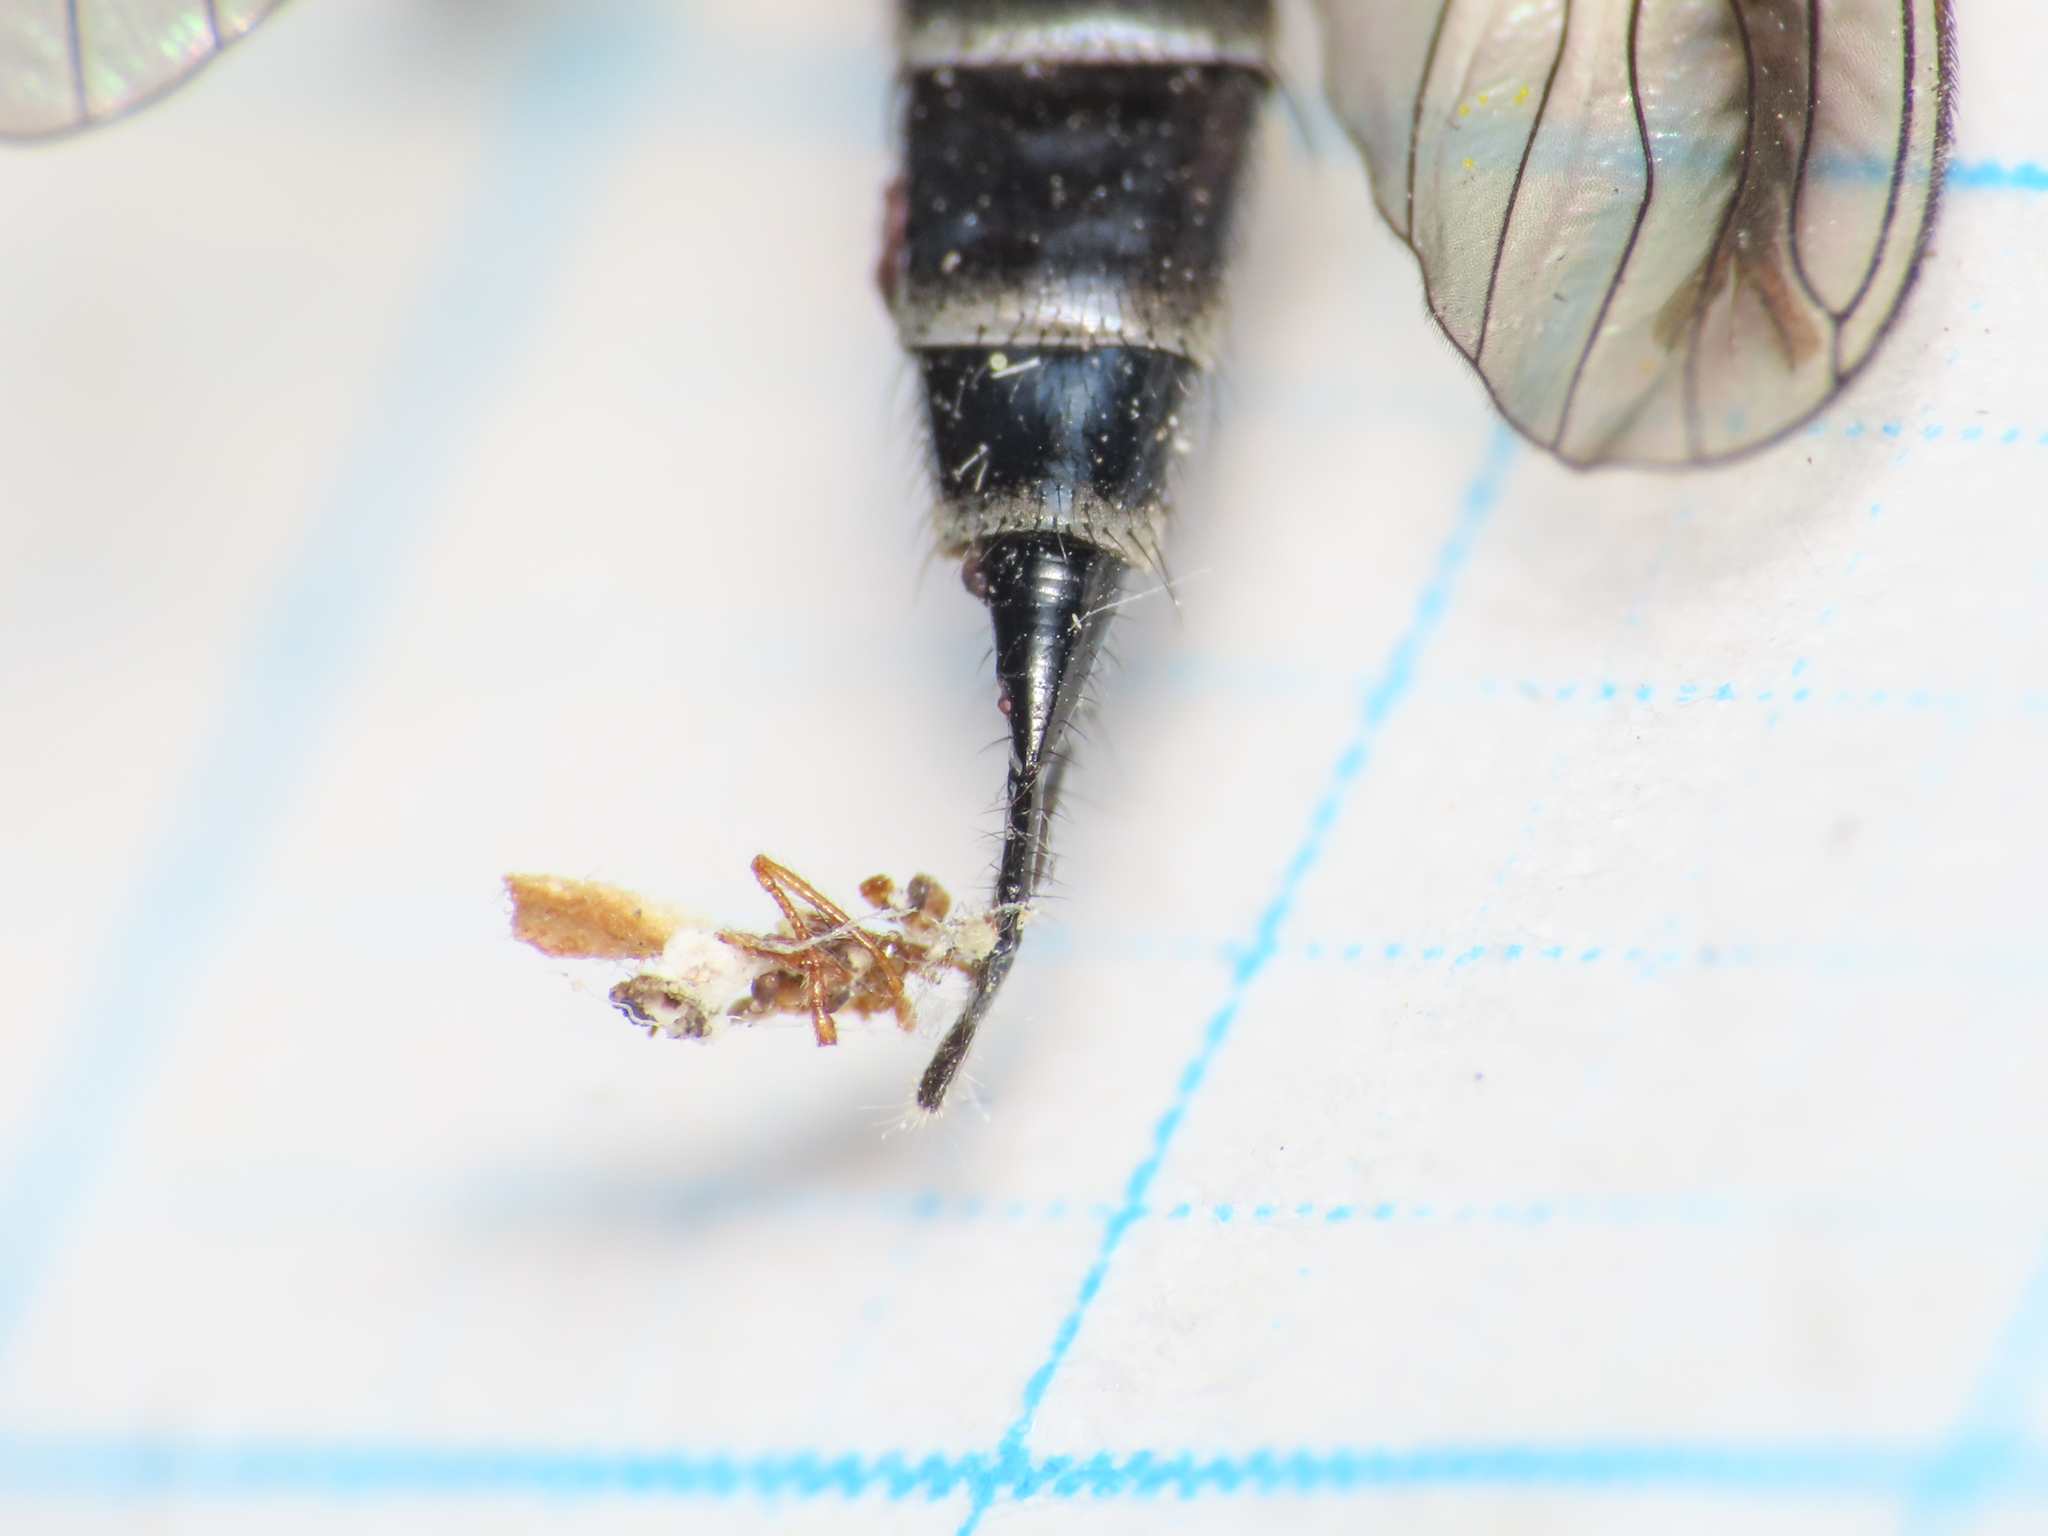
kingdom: Animalia
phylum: Arthropoda
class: Insecta
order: Diptera
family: Asilidae
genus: Neomochtherus
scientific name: Neomochtherus schineri
